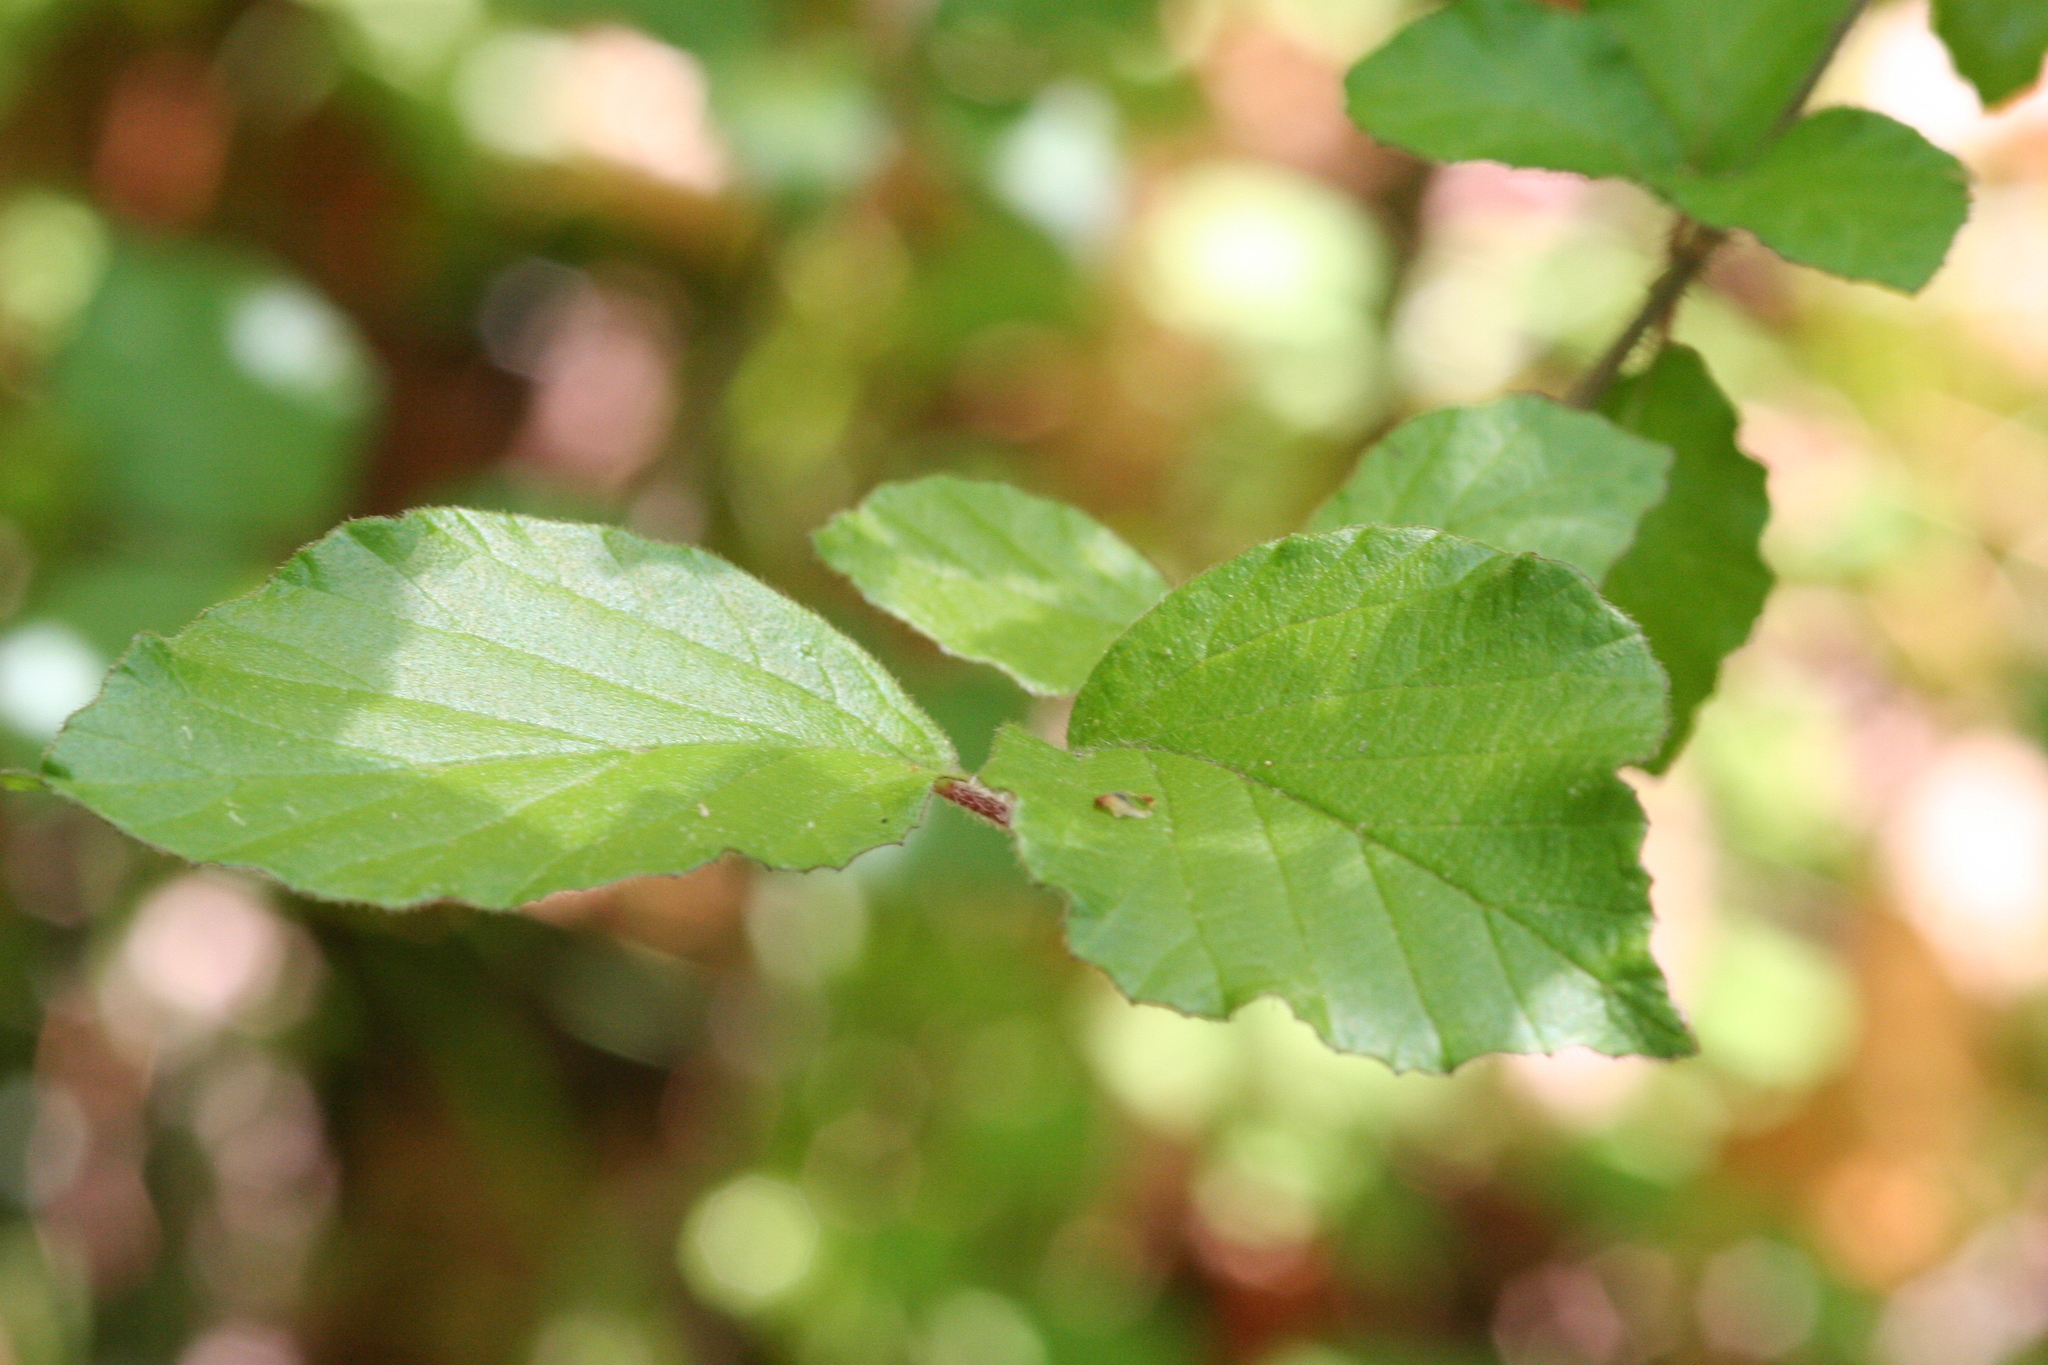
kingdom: Plantae
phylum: Tracheophyta
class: Magnoliopsida
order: Dipsacales
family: Viburnaceae
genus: Viburnum
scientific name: Viburnum dilatatum
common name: Linden arrowwood
